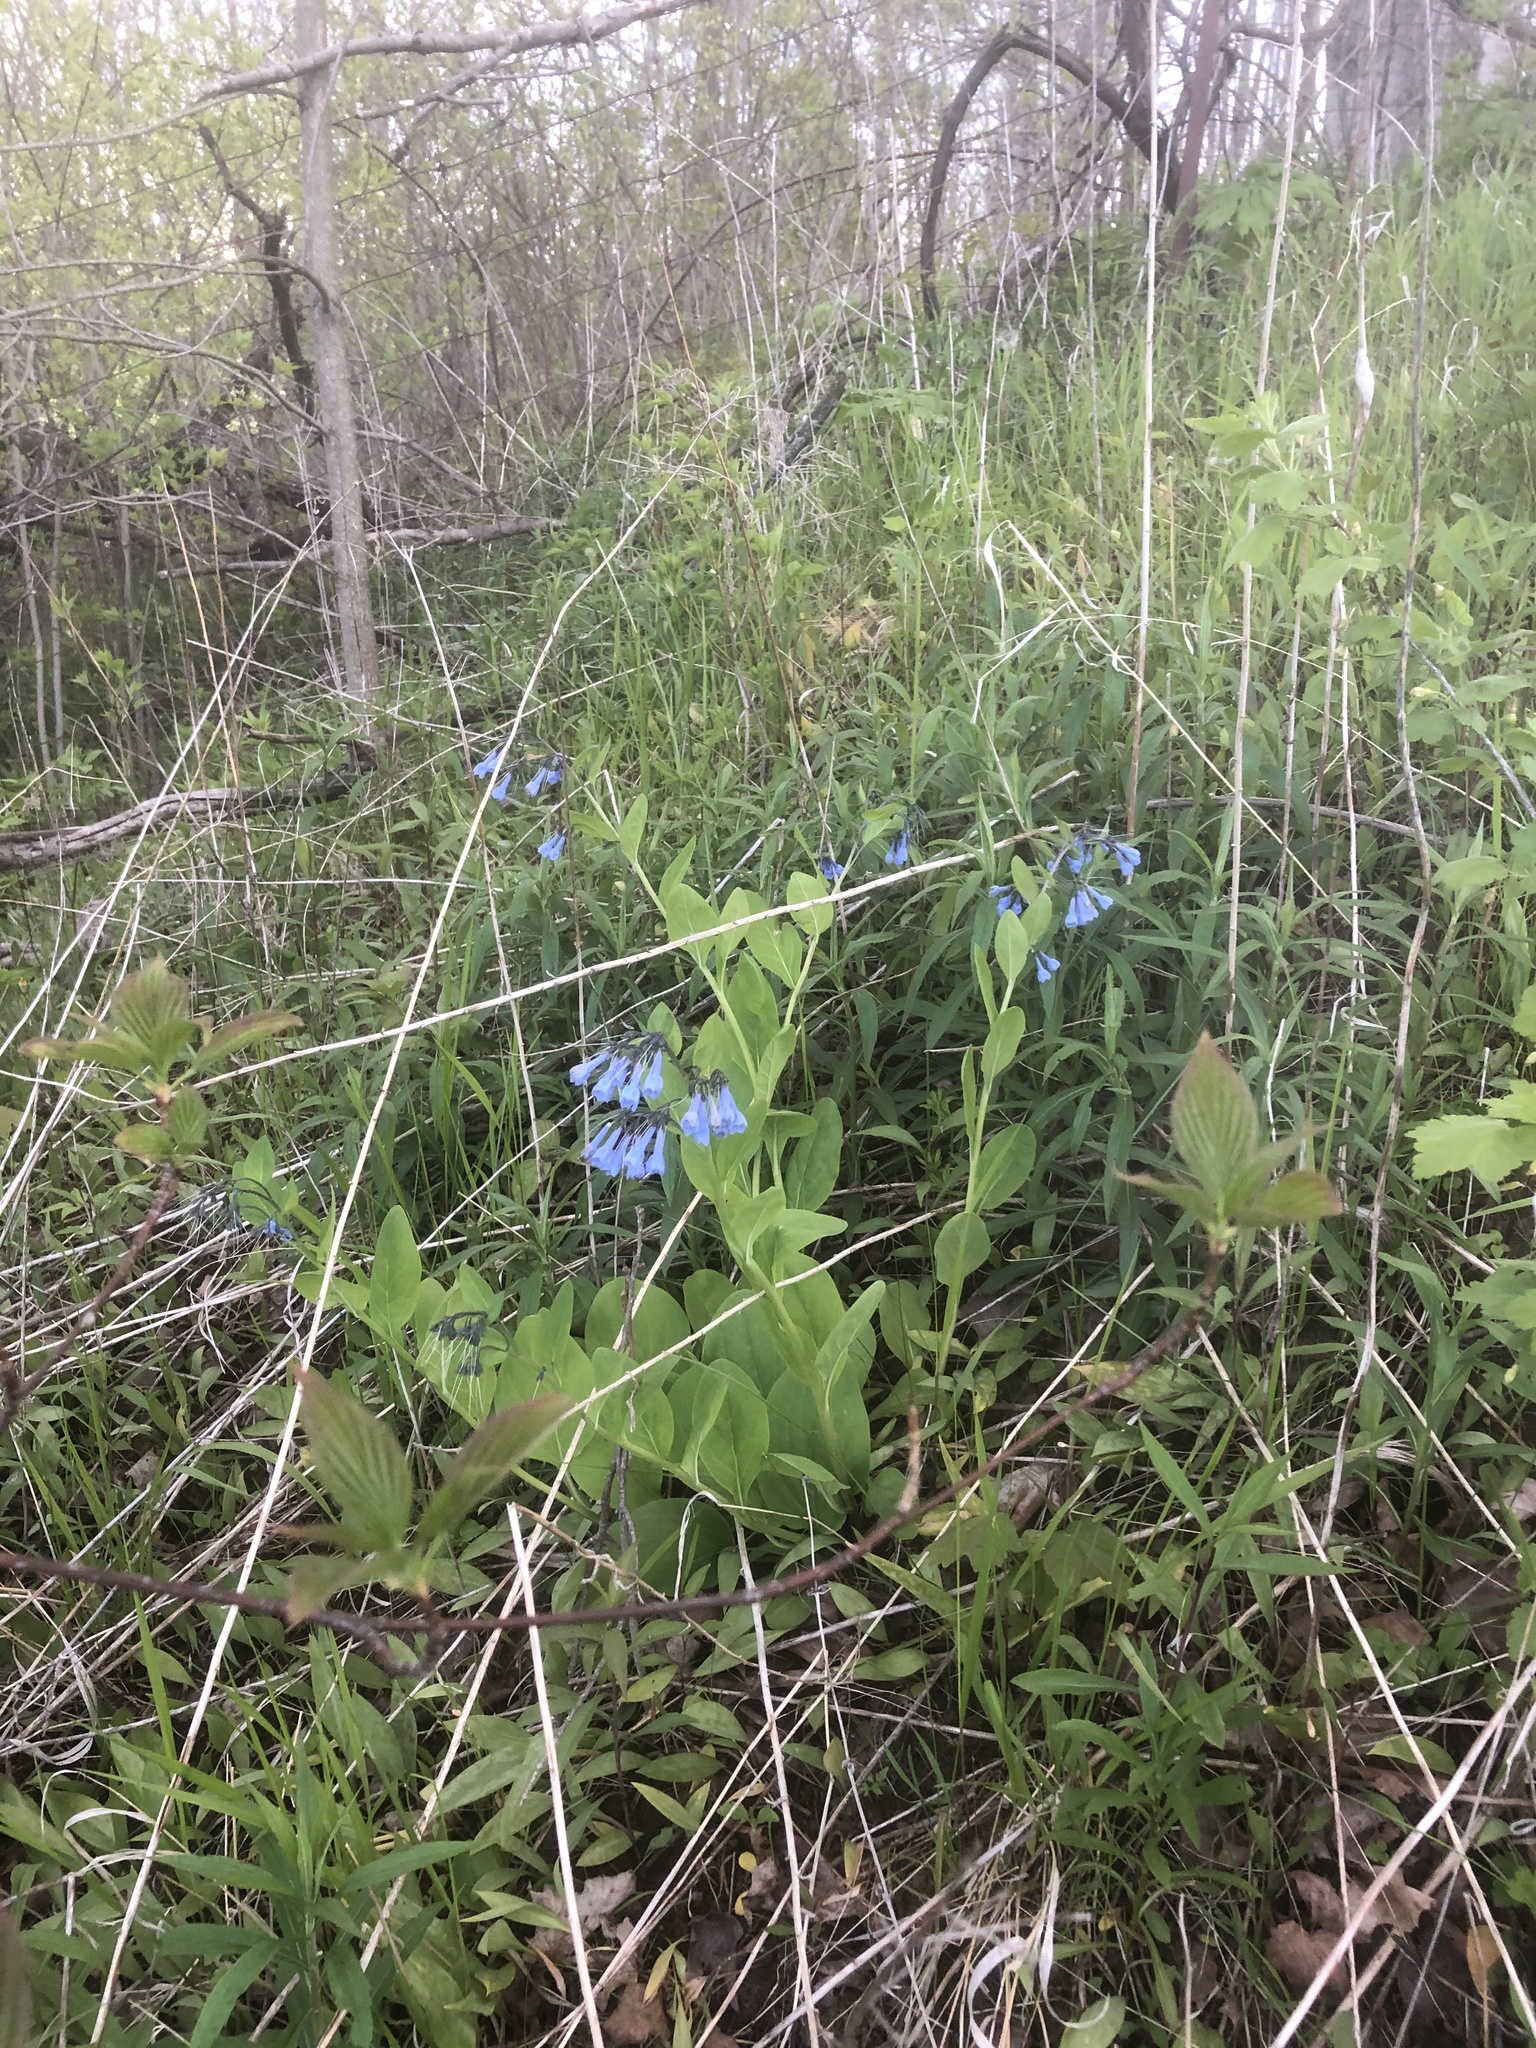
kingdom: Plantae
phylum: Tracheophyta
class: Magnoliopsida
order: Boraginales
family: Boraginaceae
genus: Mertensia
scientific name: Mertensia virginica
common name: Virginia bluebells
